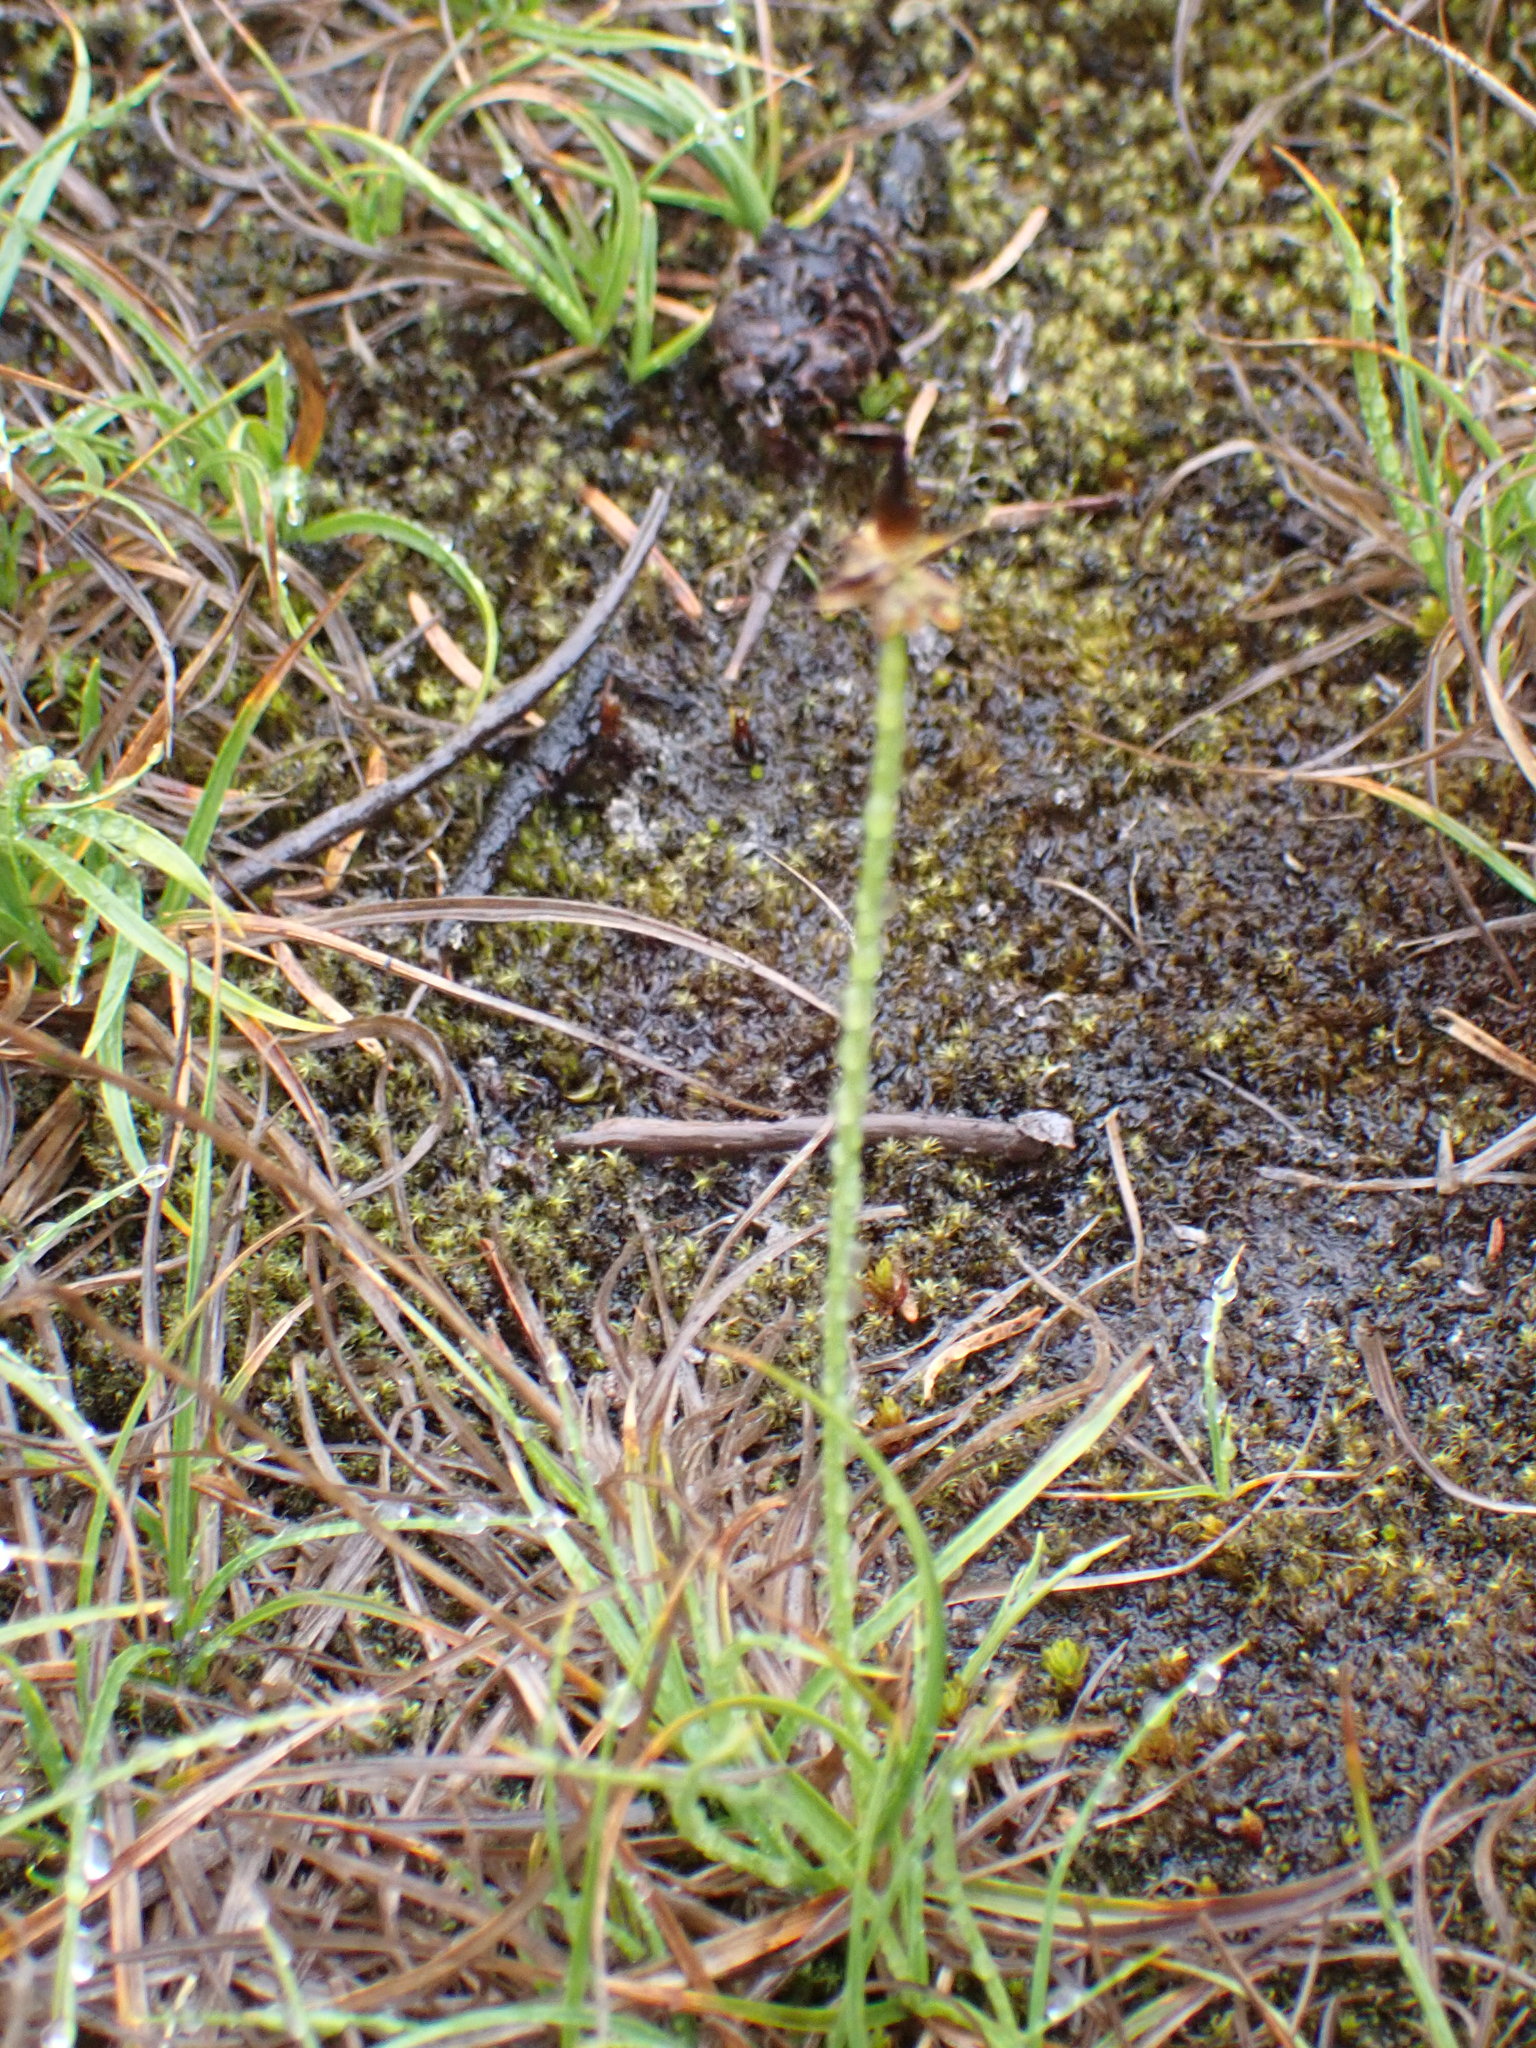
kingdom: Plantae
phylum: Tracheophyta
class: Liliopsida
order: Poales
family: Cyperaceae
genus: Carex
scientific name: Carex nigricans
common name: Black alpine sedge
